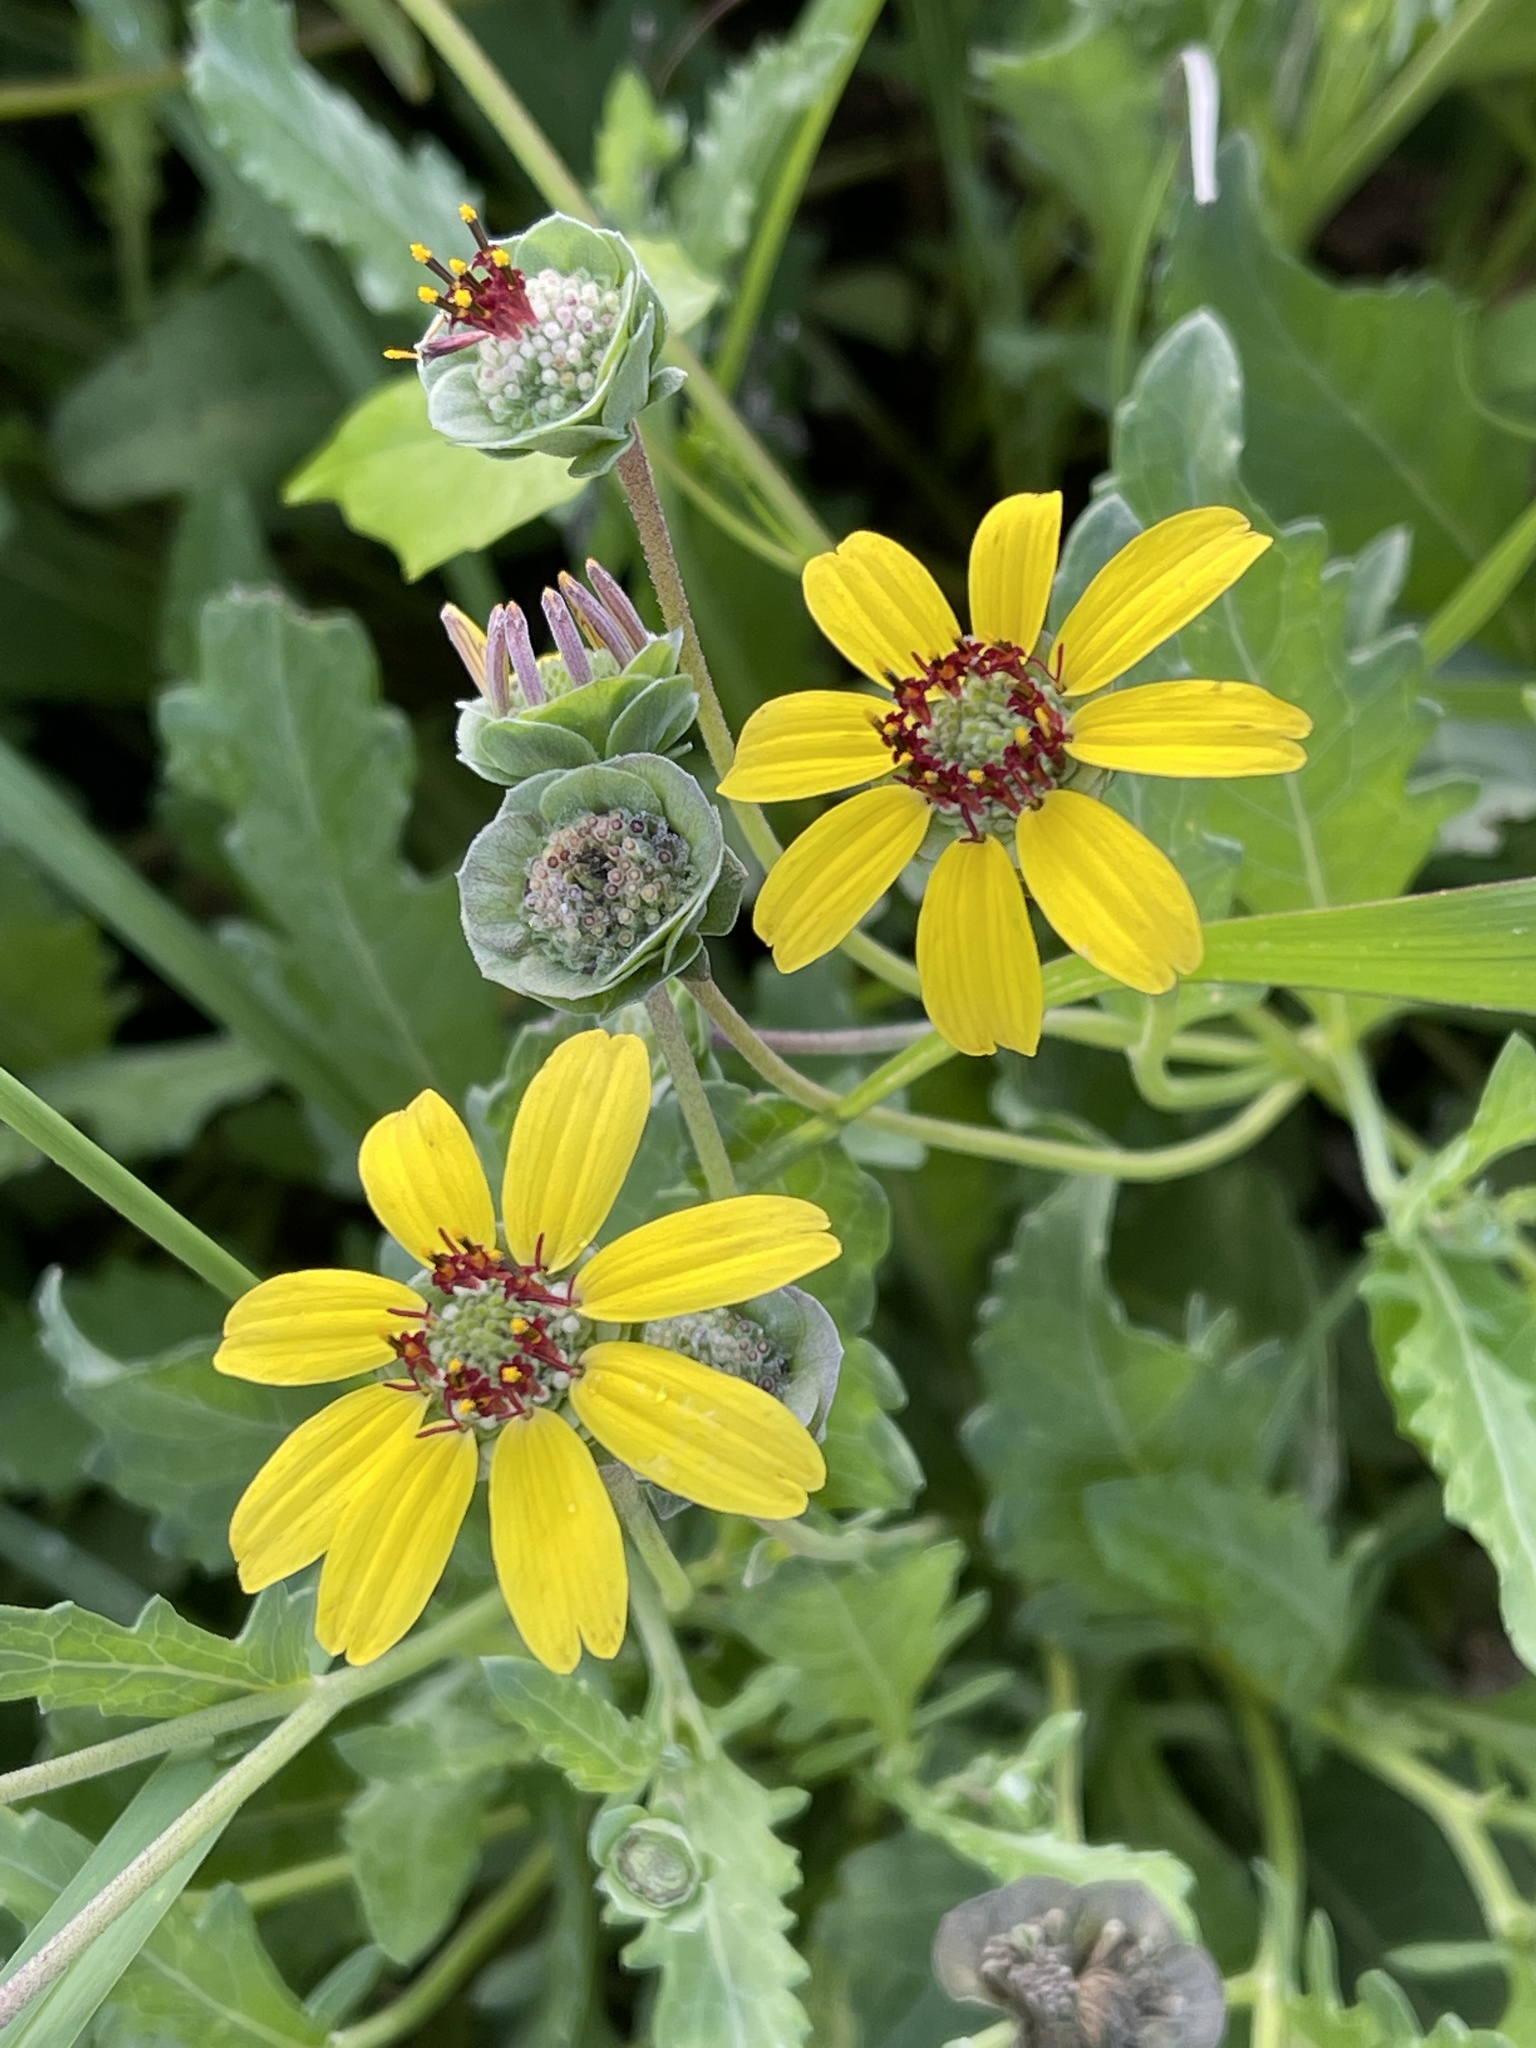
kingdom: Plantae
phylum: Tracheophyta
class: Magnoliopsida
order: Asterales
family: Asteraceae
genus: Berlandiera
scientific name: Berlandiera lyrata
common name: Chocolate-flower
